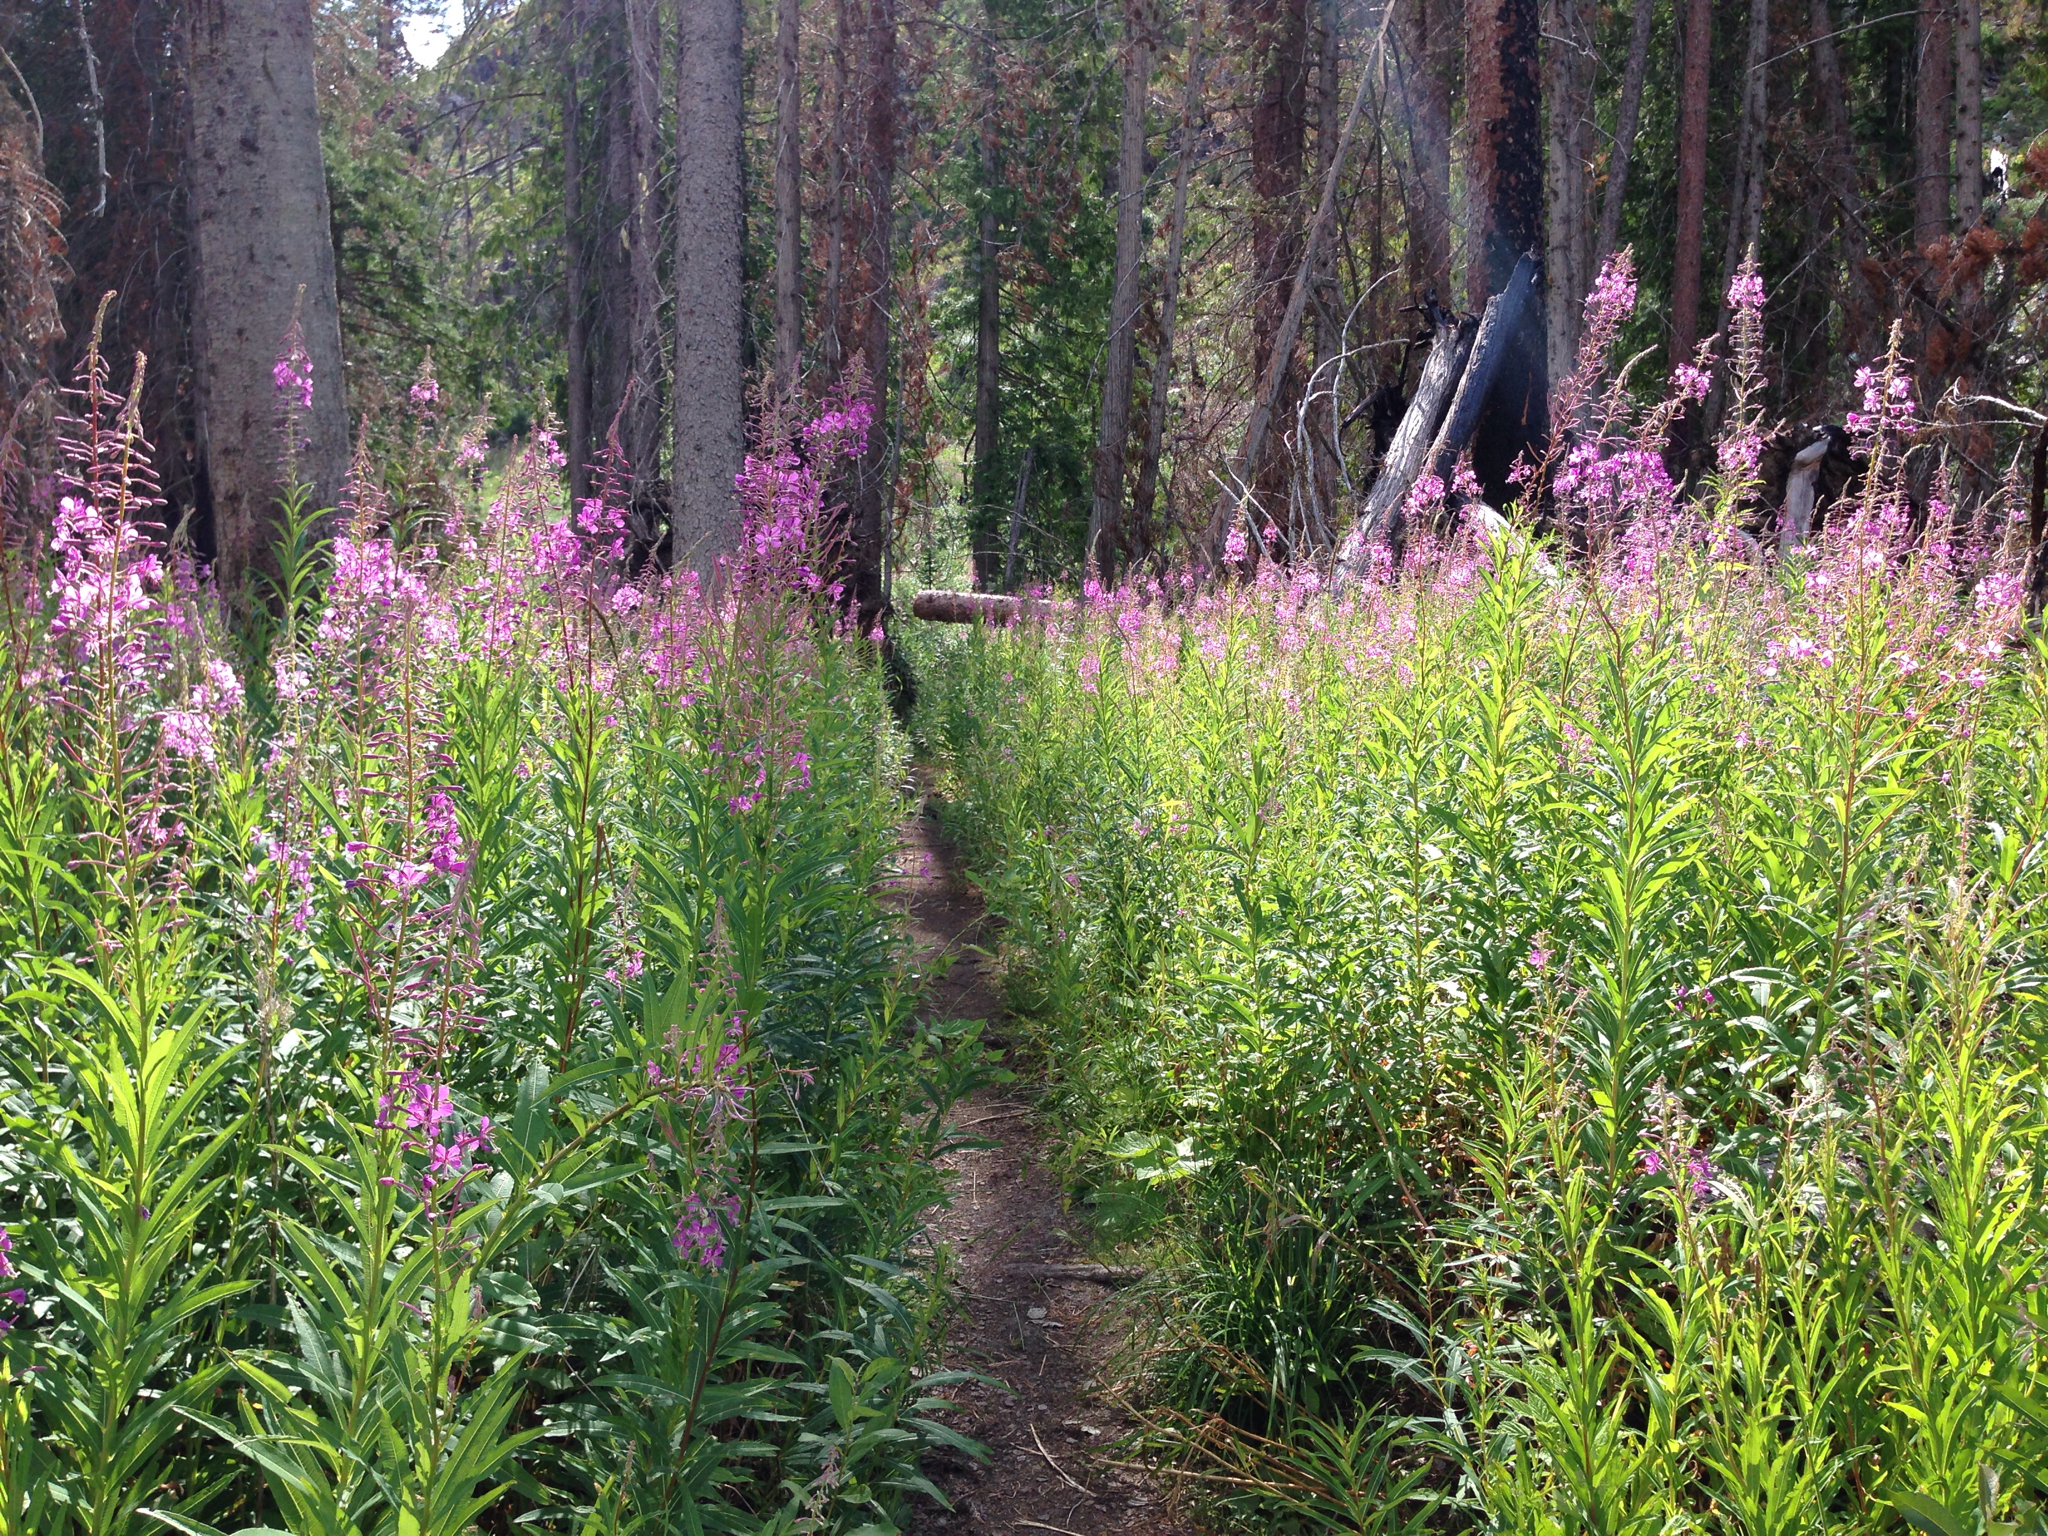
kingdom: Plantae
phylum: Tracheophyta
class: Magnoliopsida
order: Myrtales
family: Onagraceae
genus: Chamaenerion
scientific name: Chamaenerion angustifolium
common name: Fireweed
